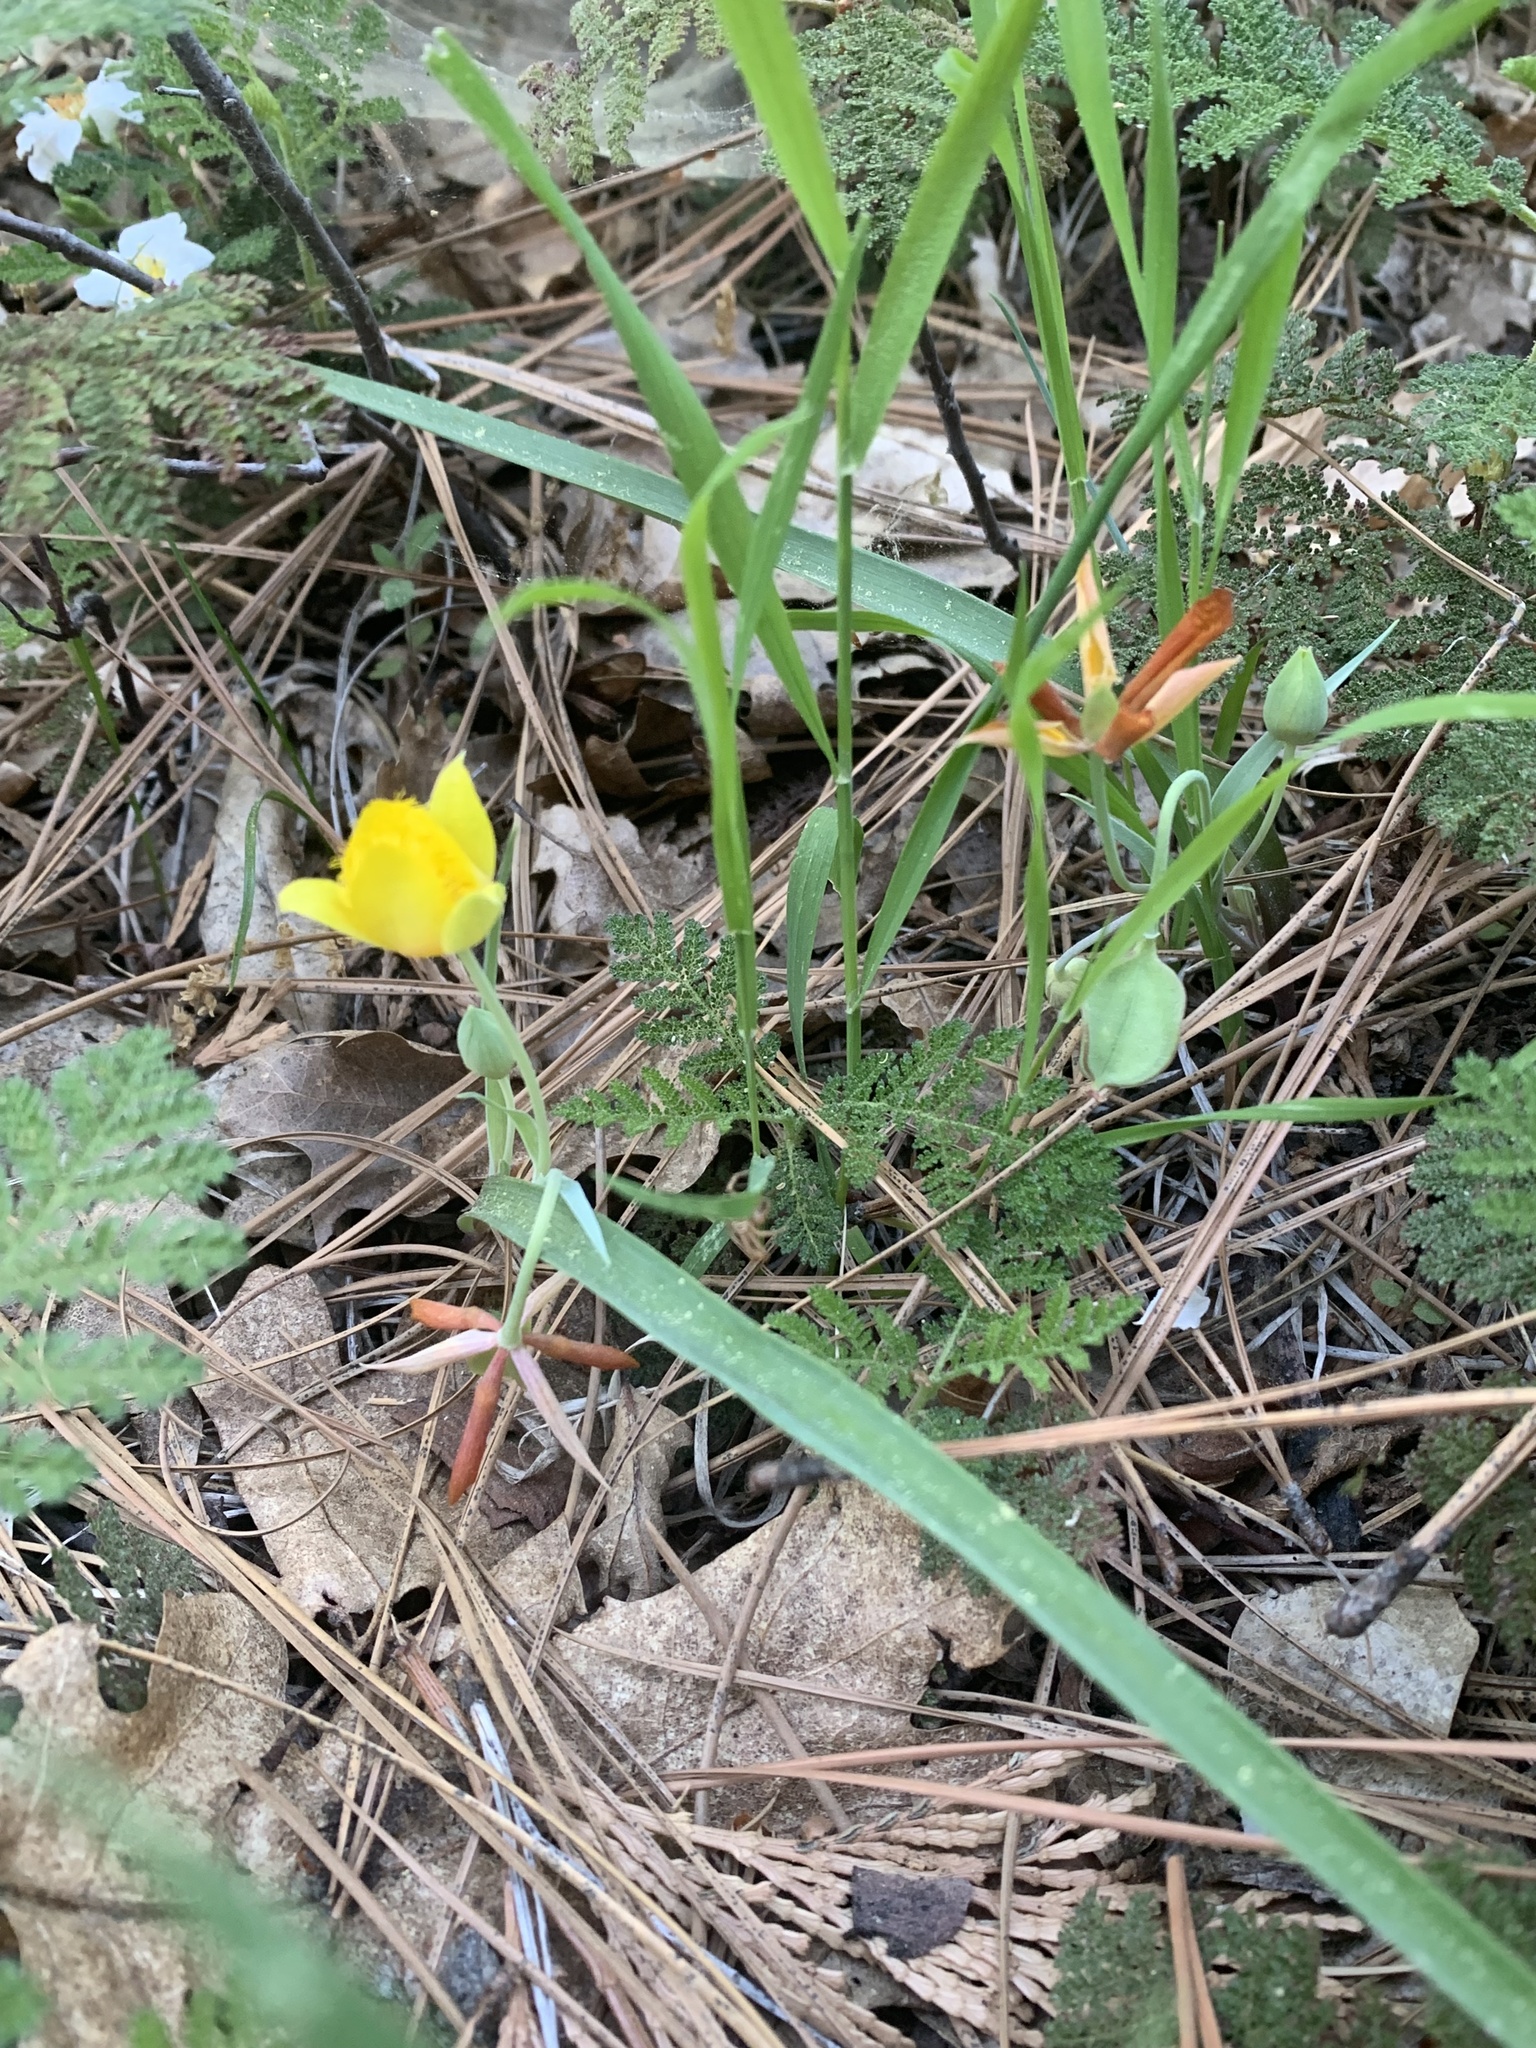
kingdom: Plantae
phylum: Tracheophyta
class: Liliopsida
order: Liliales
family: Liliaceae
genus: Calochortus
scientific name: Calochortus monophyllus
